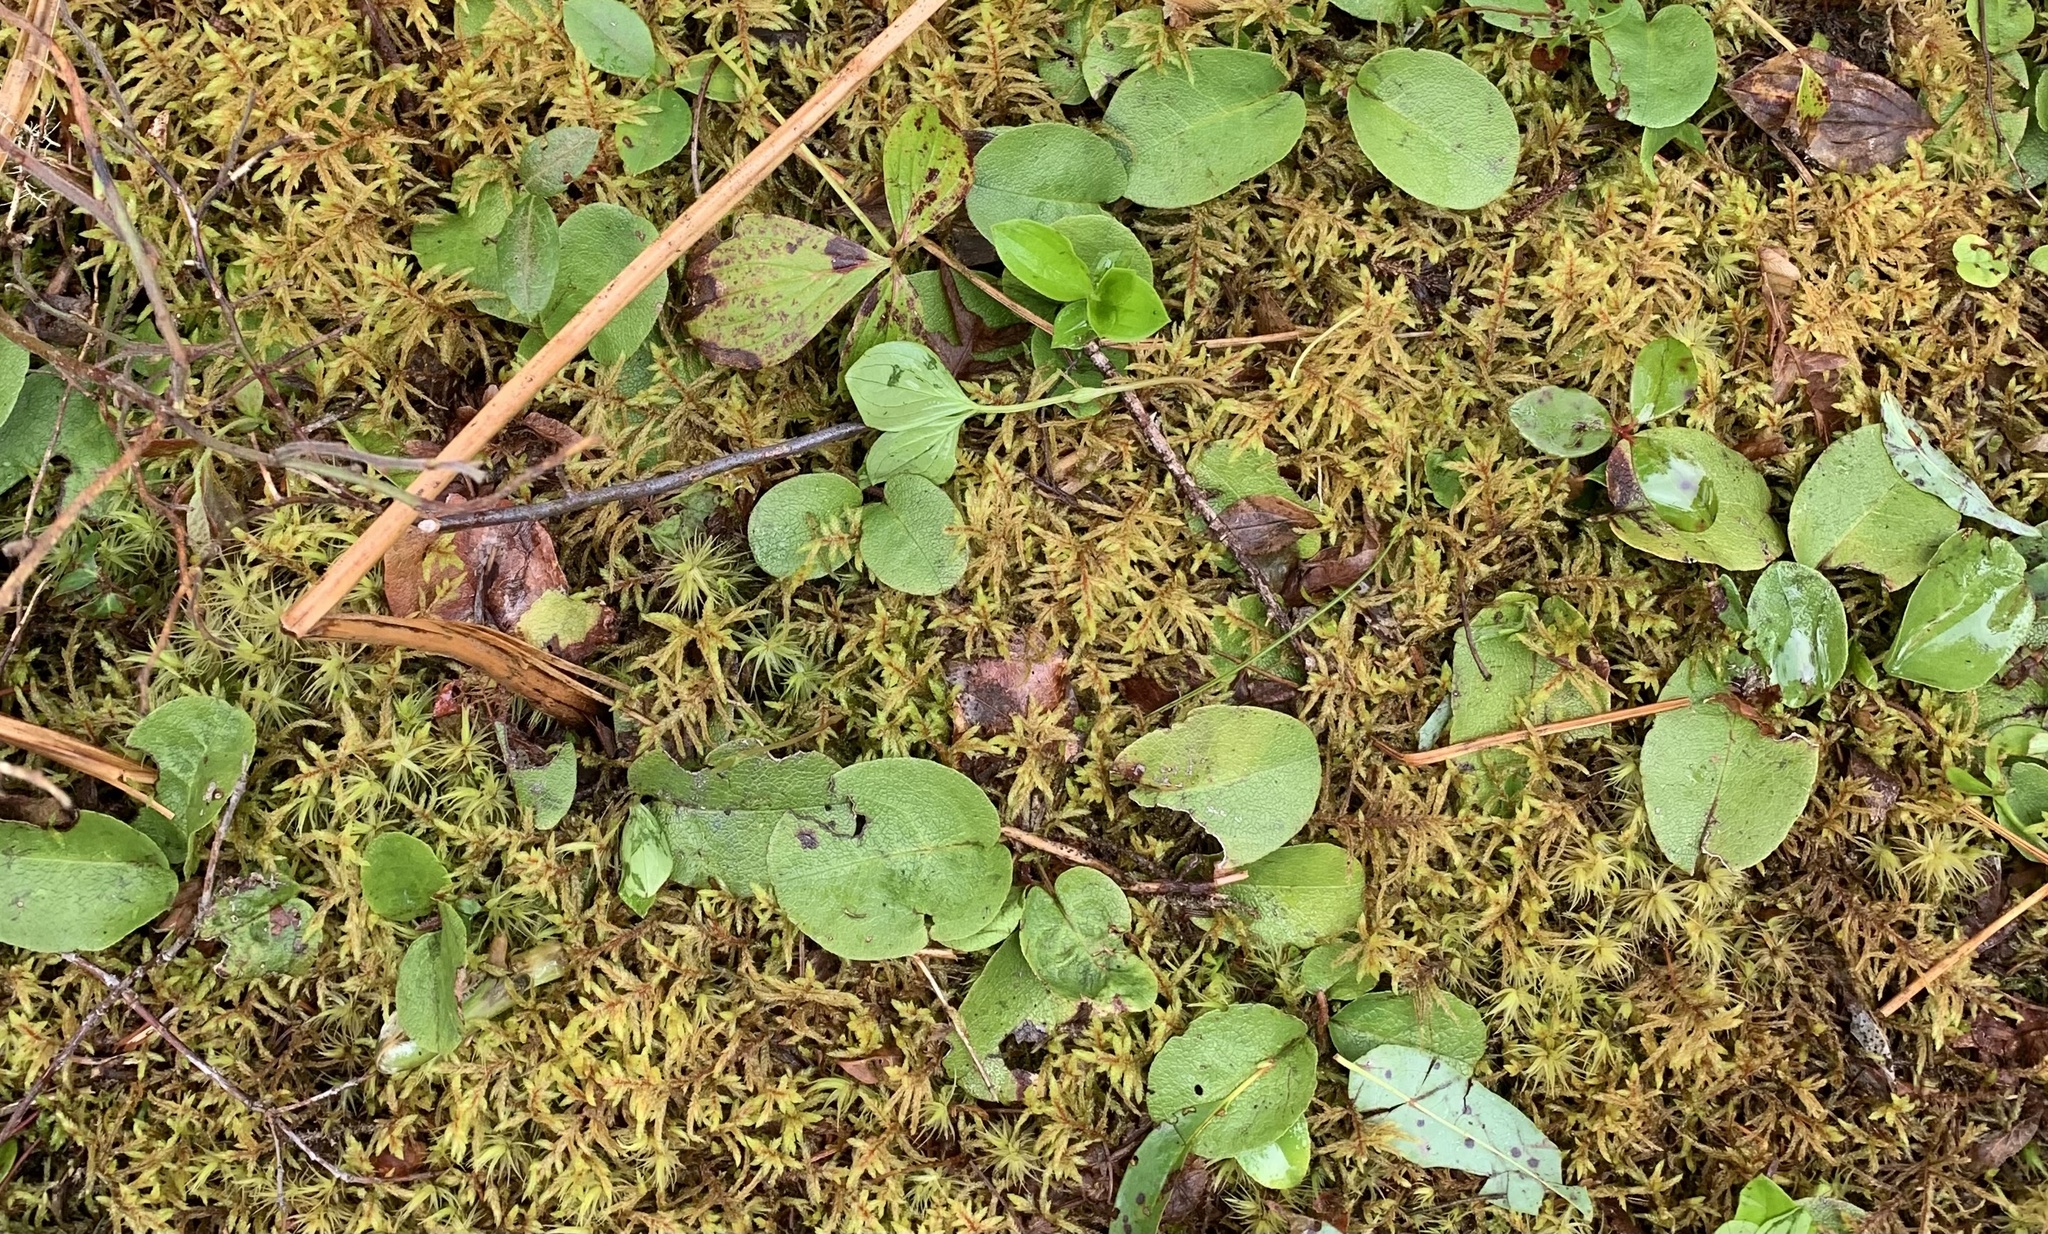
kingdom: Plantae
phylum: Tracheophyta
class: Magnoliopsida
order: Ericales
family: Ericaceae
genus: Epigaea
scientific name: Epigaea repens
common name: Gravelroot
